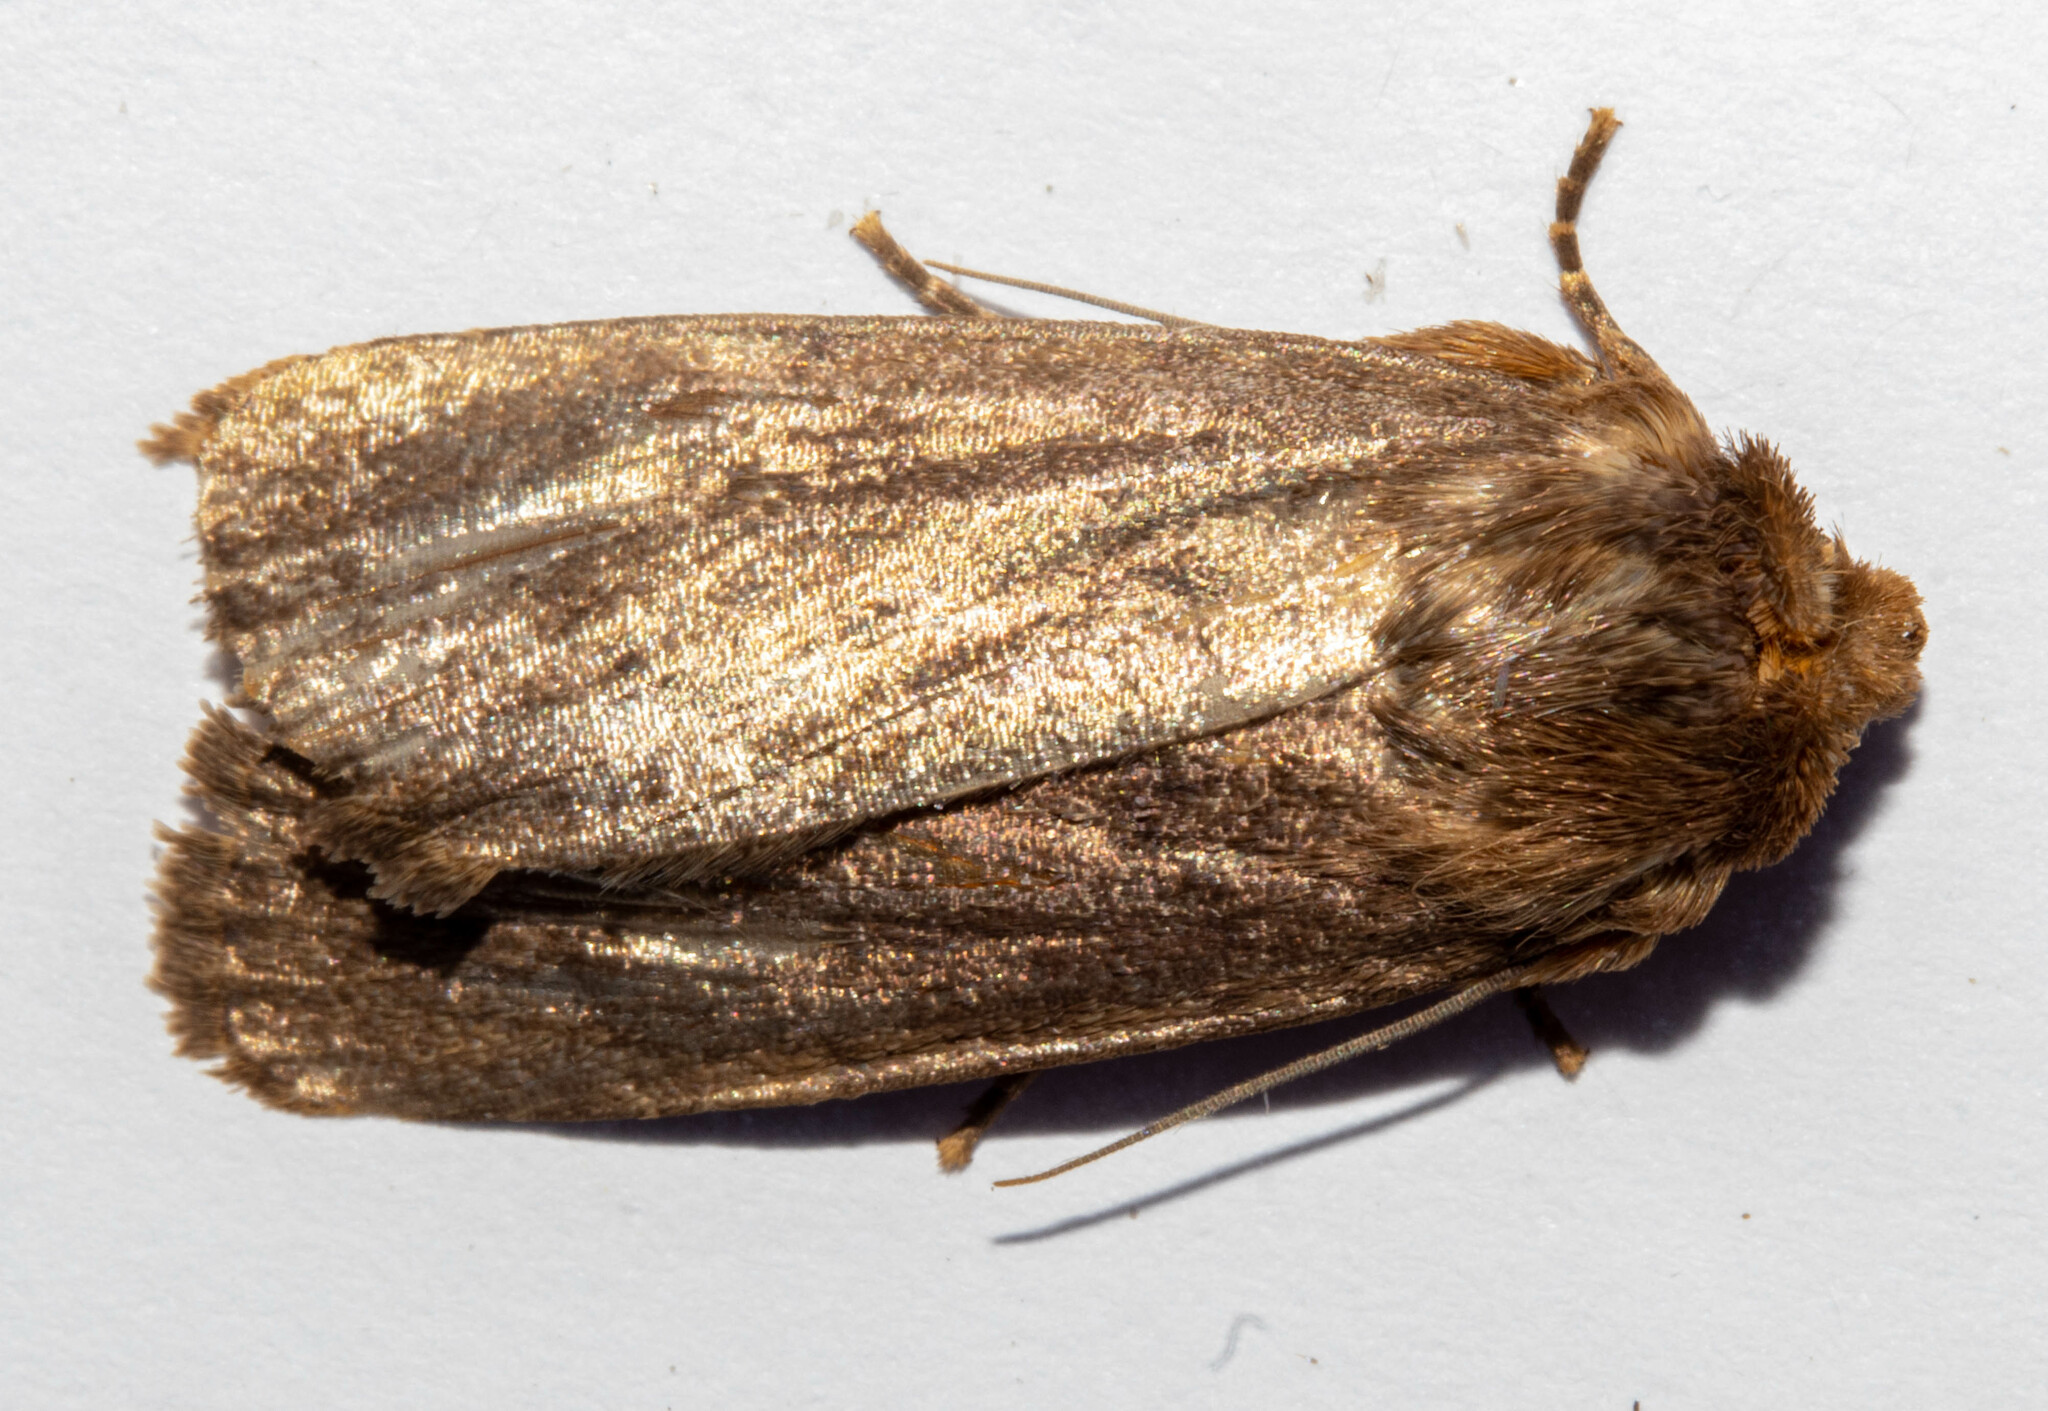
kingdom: Animalia
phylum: Arthropoda
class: Insecta
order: Lepidoptera
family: Noctuidae
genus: Bityla
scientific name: Bityla defigurata
